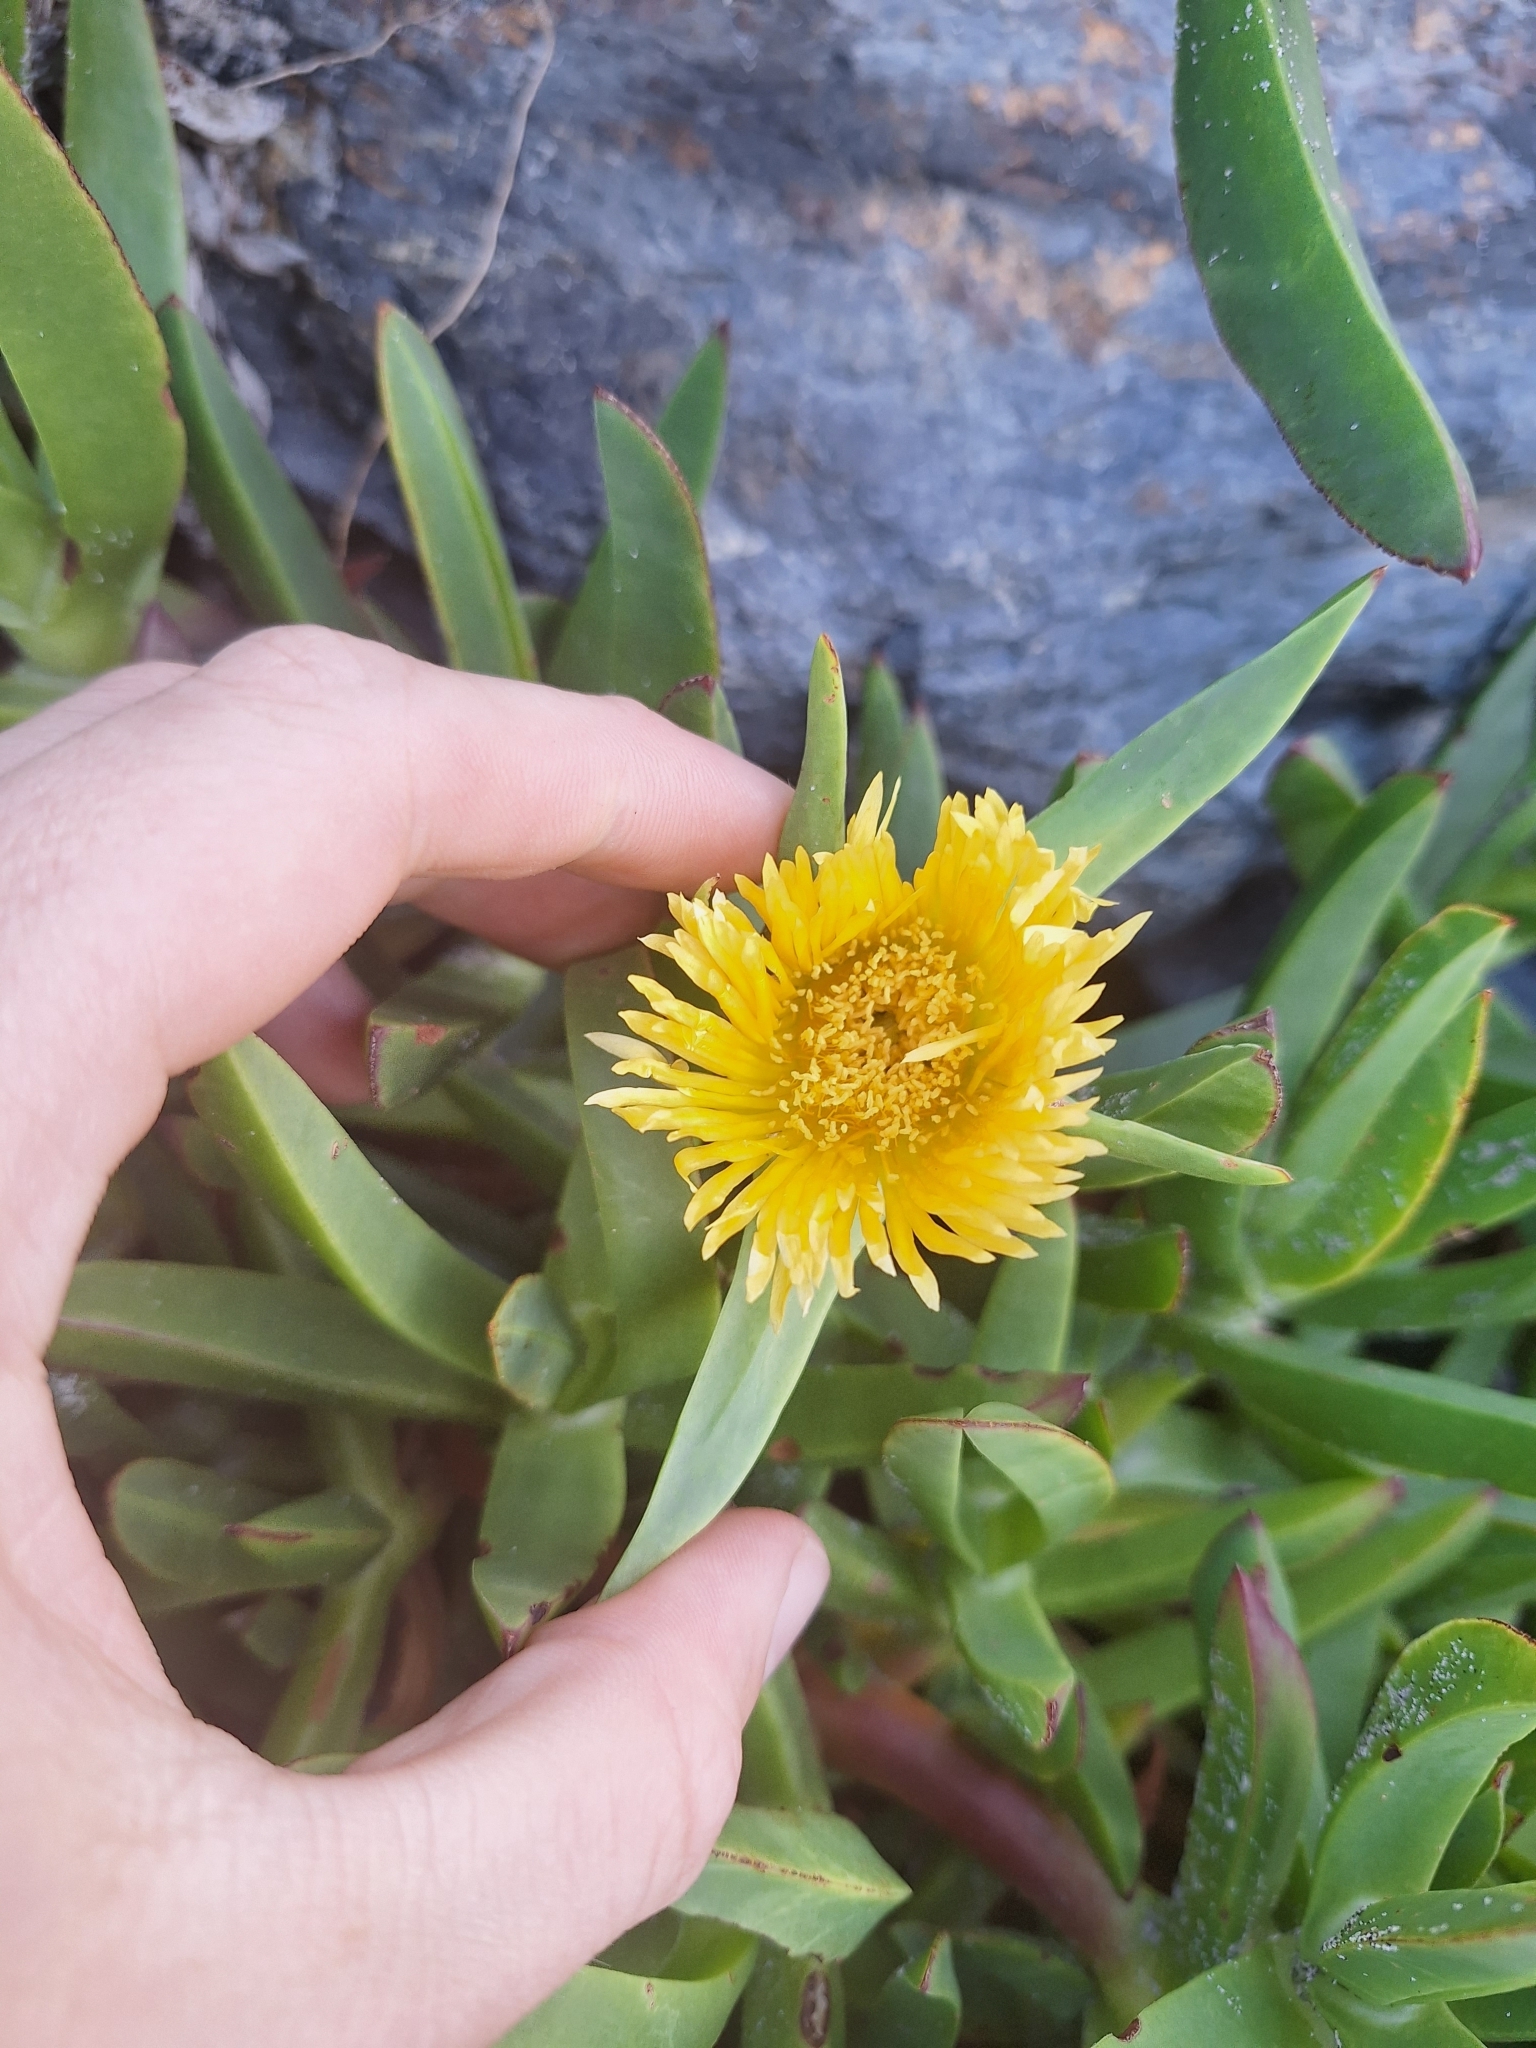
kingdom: Plantae
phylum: Tracheophyta
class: Magnoliopsida
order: Caryophyllales
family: Aizoaceae
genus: Carpobrotus
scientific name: Carpobrotus edulis
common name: Hottentot-fig
